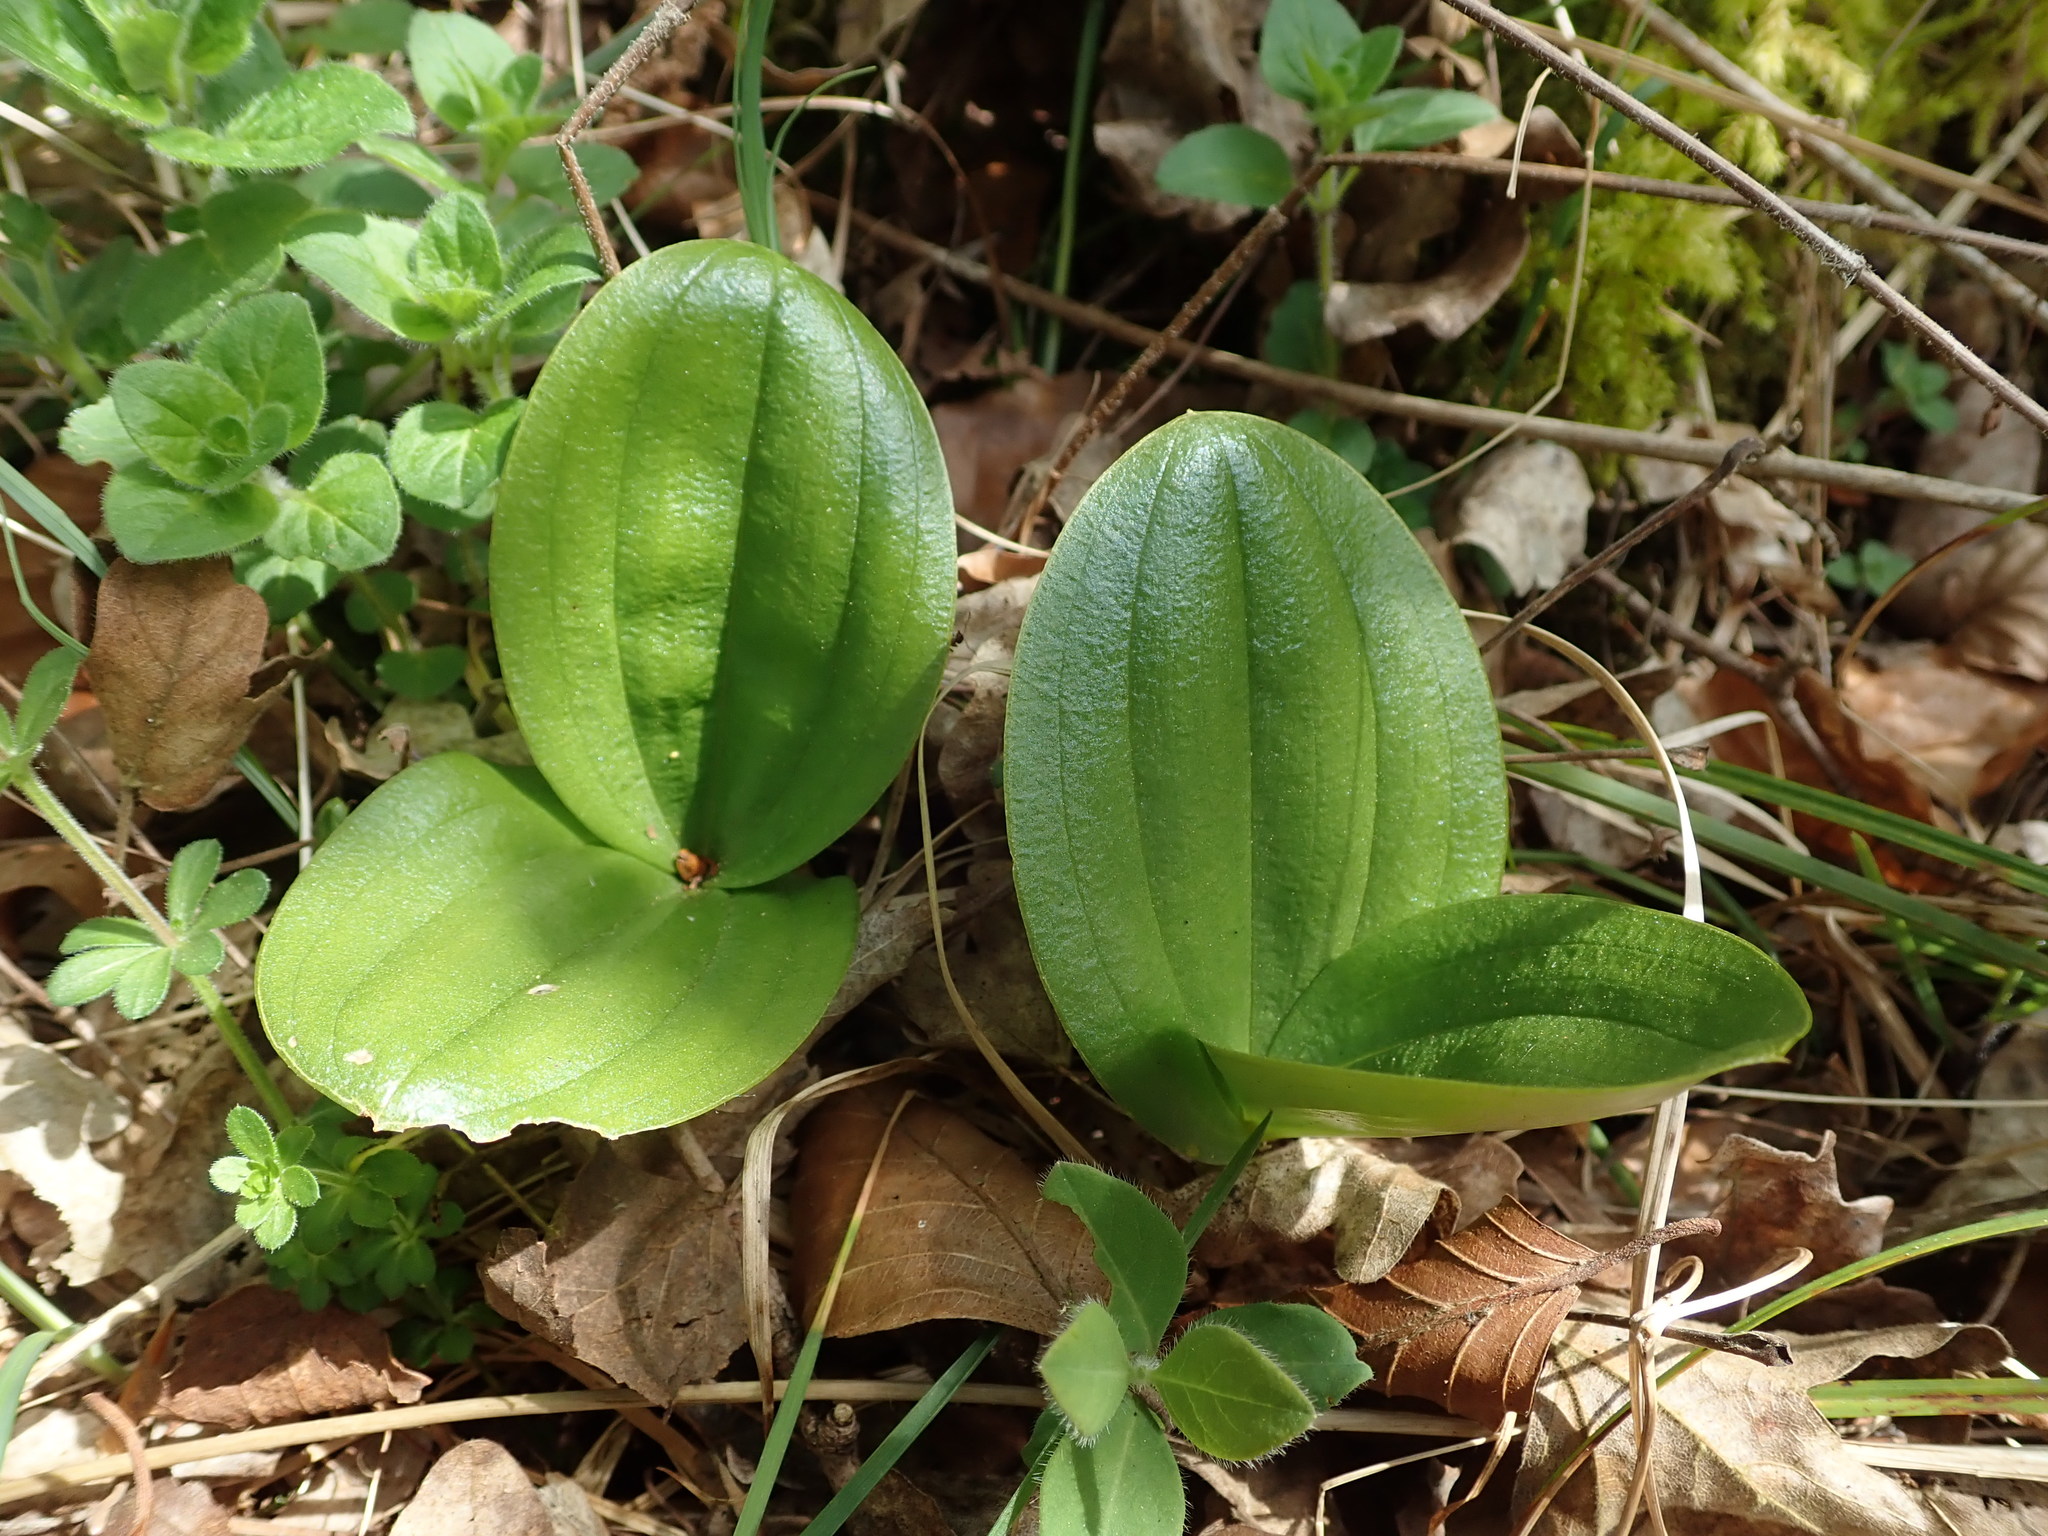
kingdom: Plantae
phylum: Tracheophyta
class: Liliopsida
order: Asparagales
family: Orchidaceae
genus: Neottia
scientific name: Neottia ovata
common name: Common twayblade
